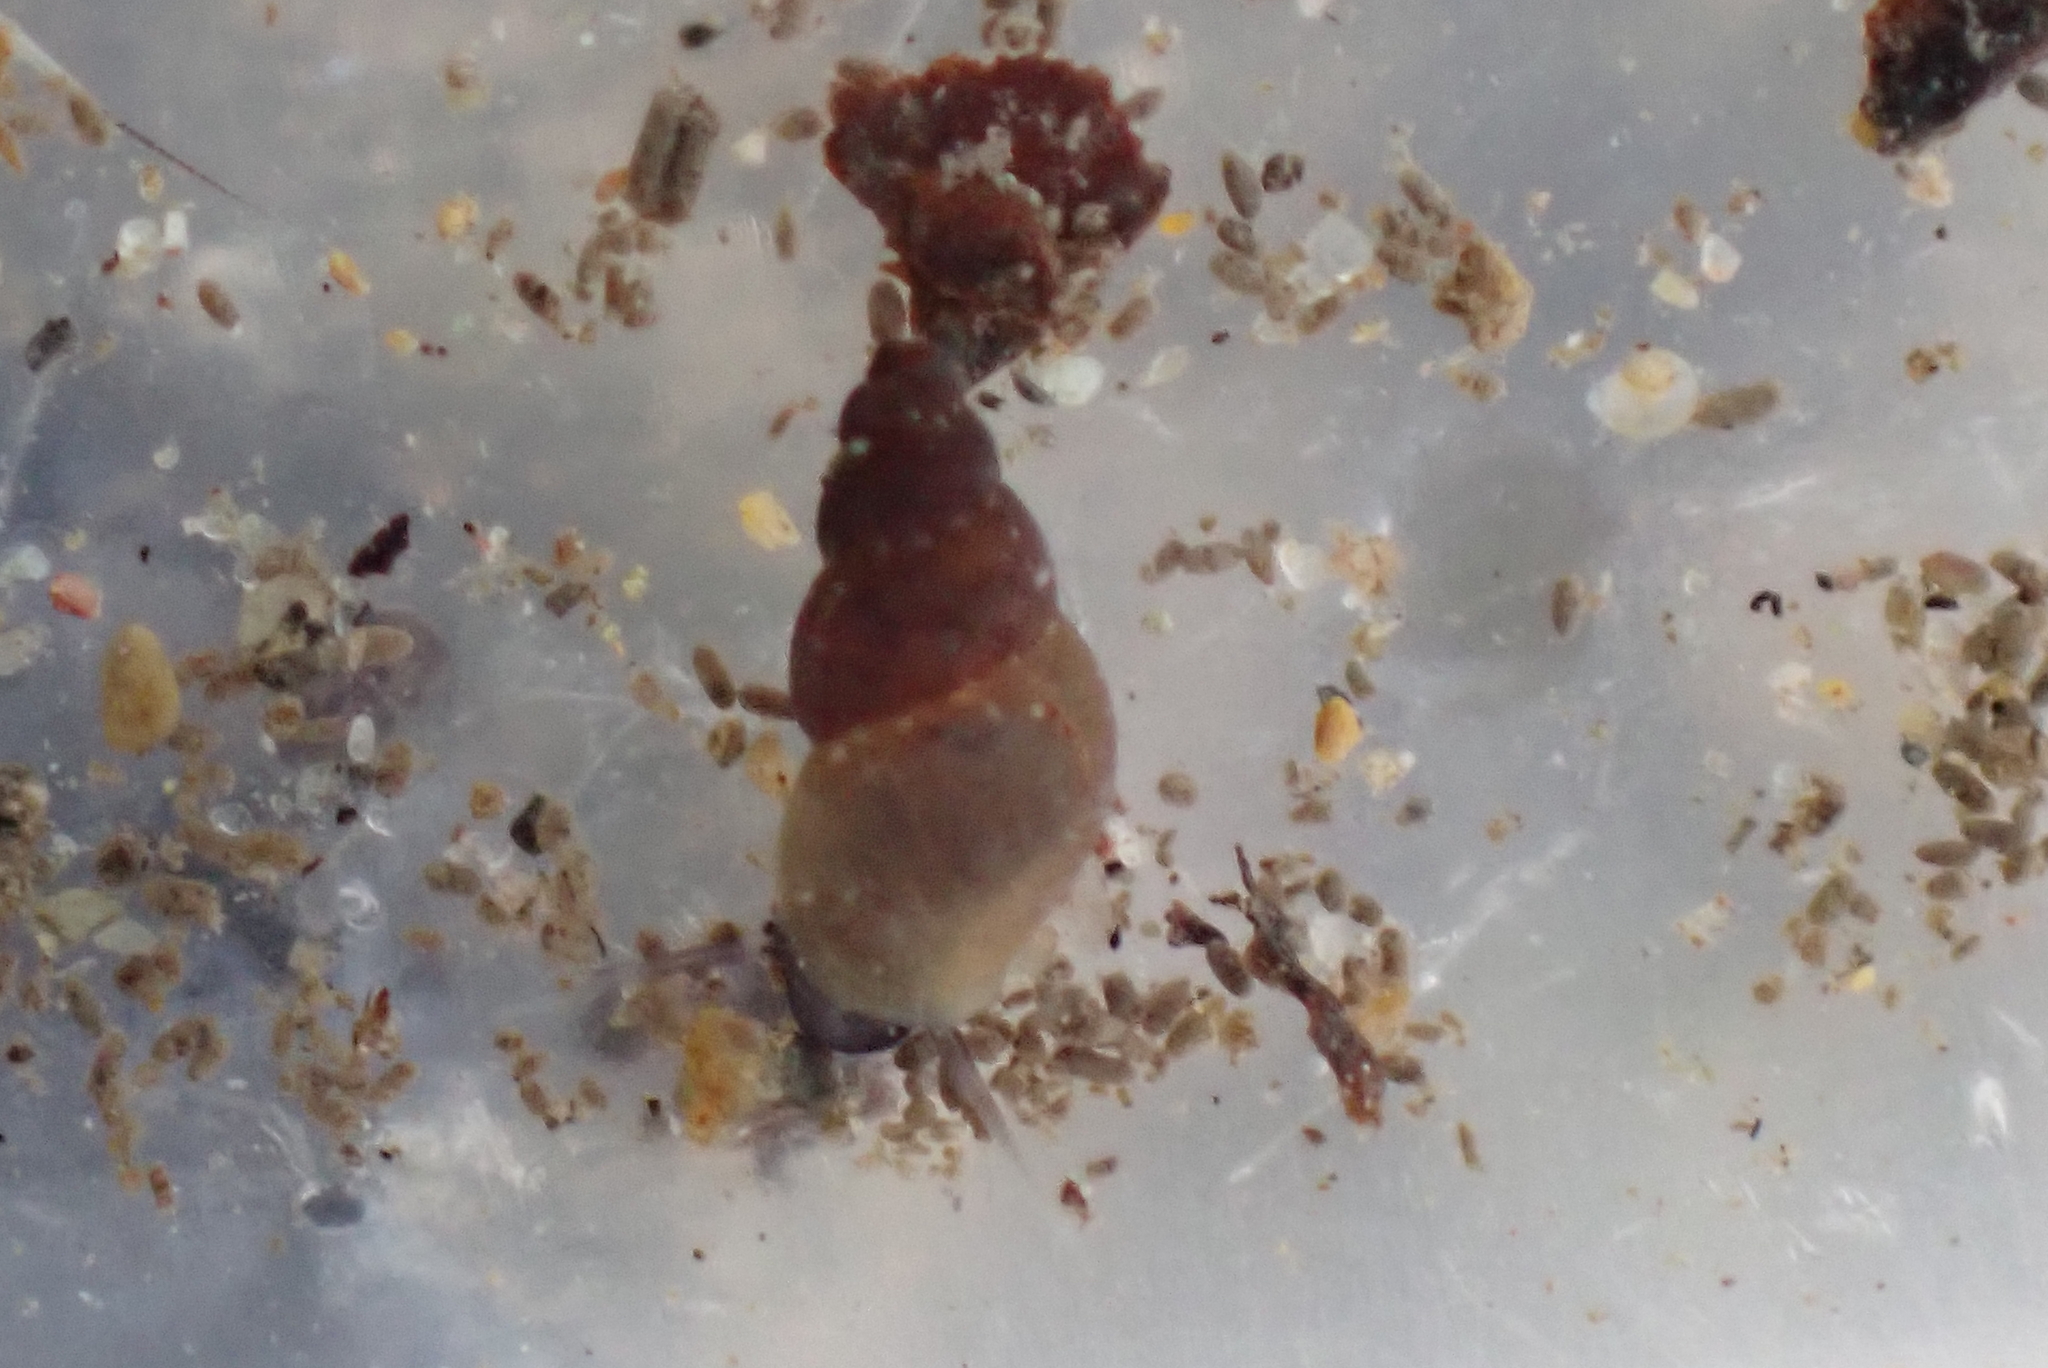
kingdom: Animalia
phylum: Mollusca
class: Gastropoda
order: Littorinimorpha
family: Tateidae
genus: Potamopyrgus
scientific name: Potamopyrgus antipodarum
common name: Jenkins' spire snail
